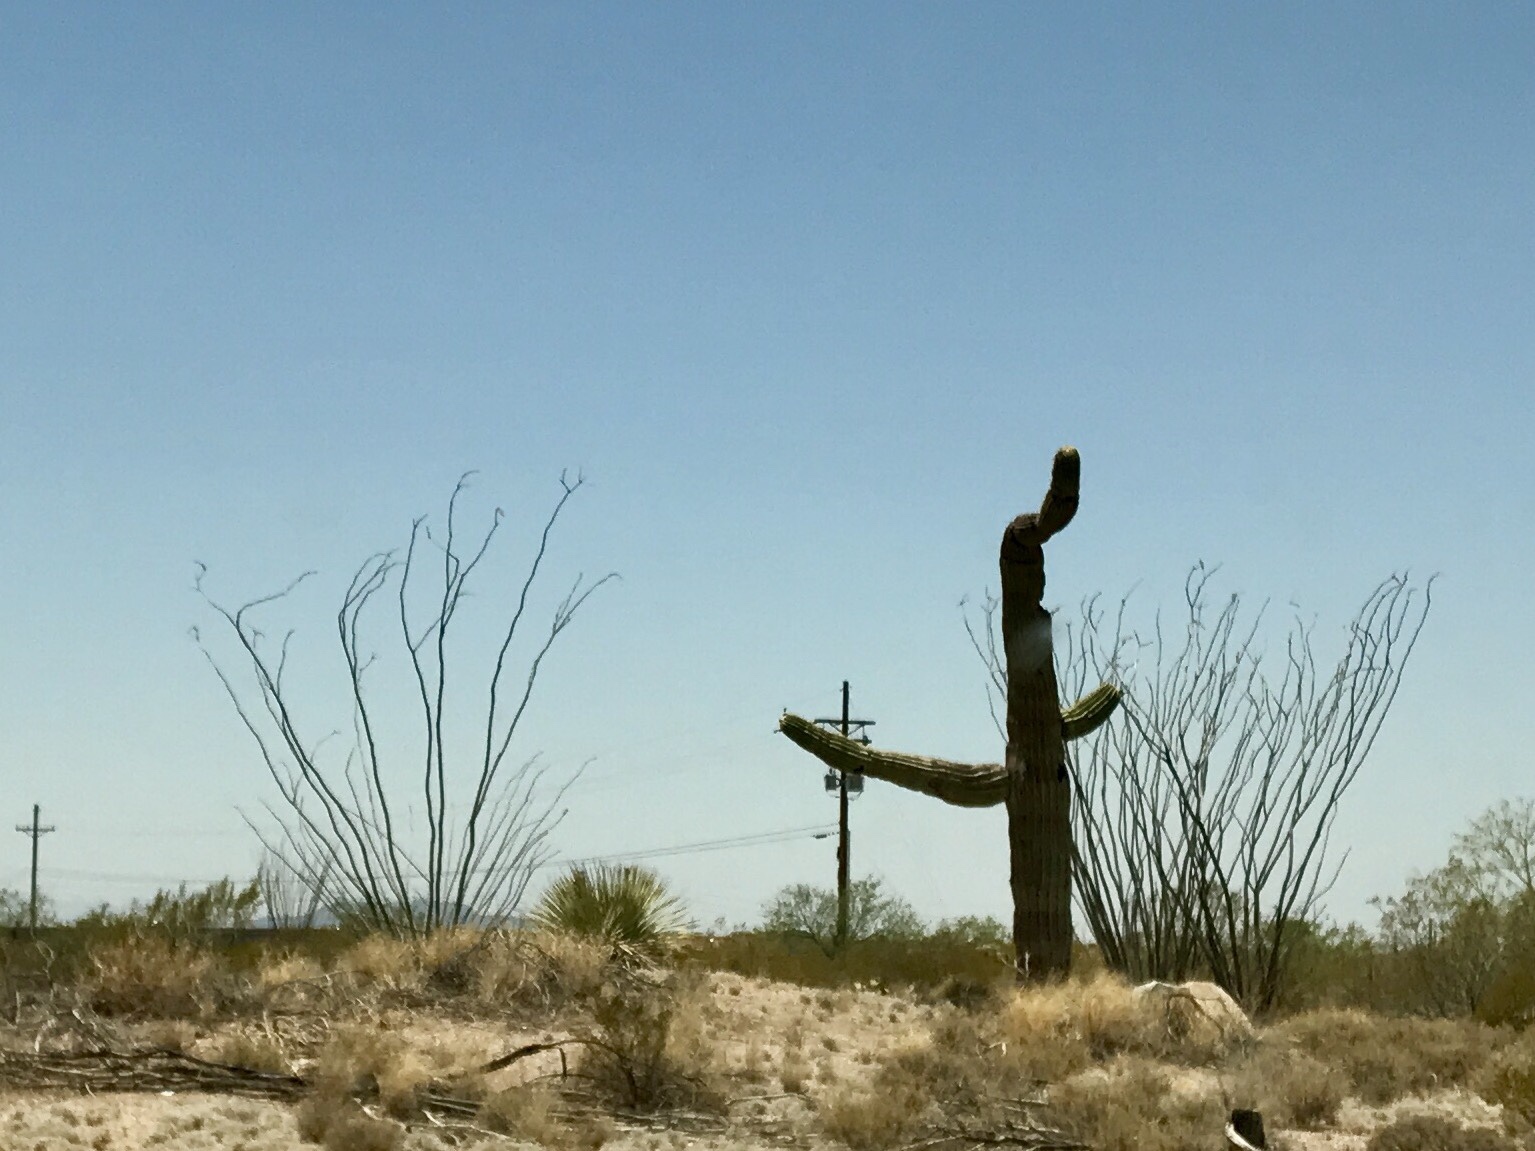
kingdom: Plantae
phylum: Tracheophyta
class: Magnoliopsida
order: Ericales
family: Fouquieriaceae
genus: Fouquieria
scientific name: Fouquieria splendens
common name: Vine-cactus
